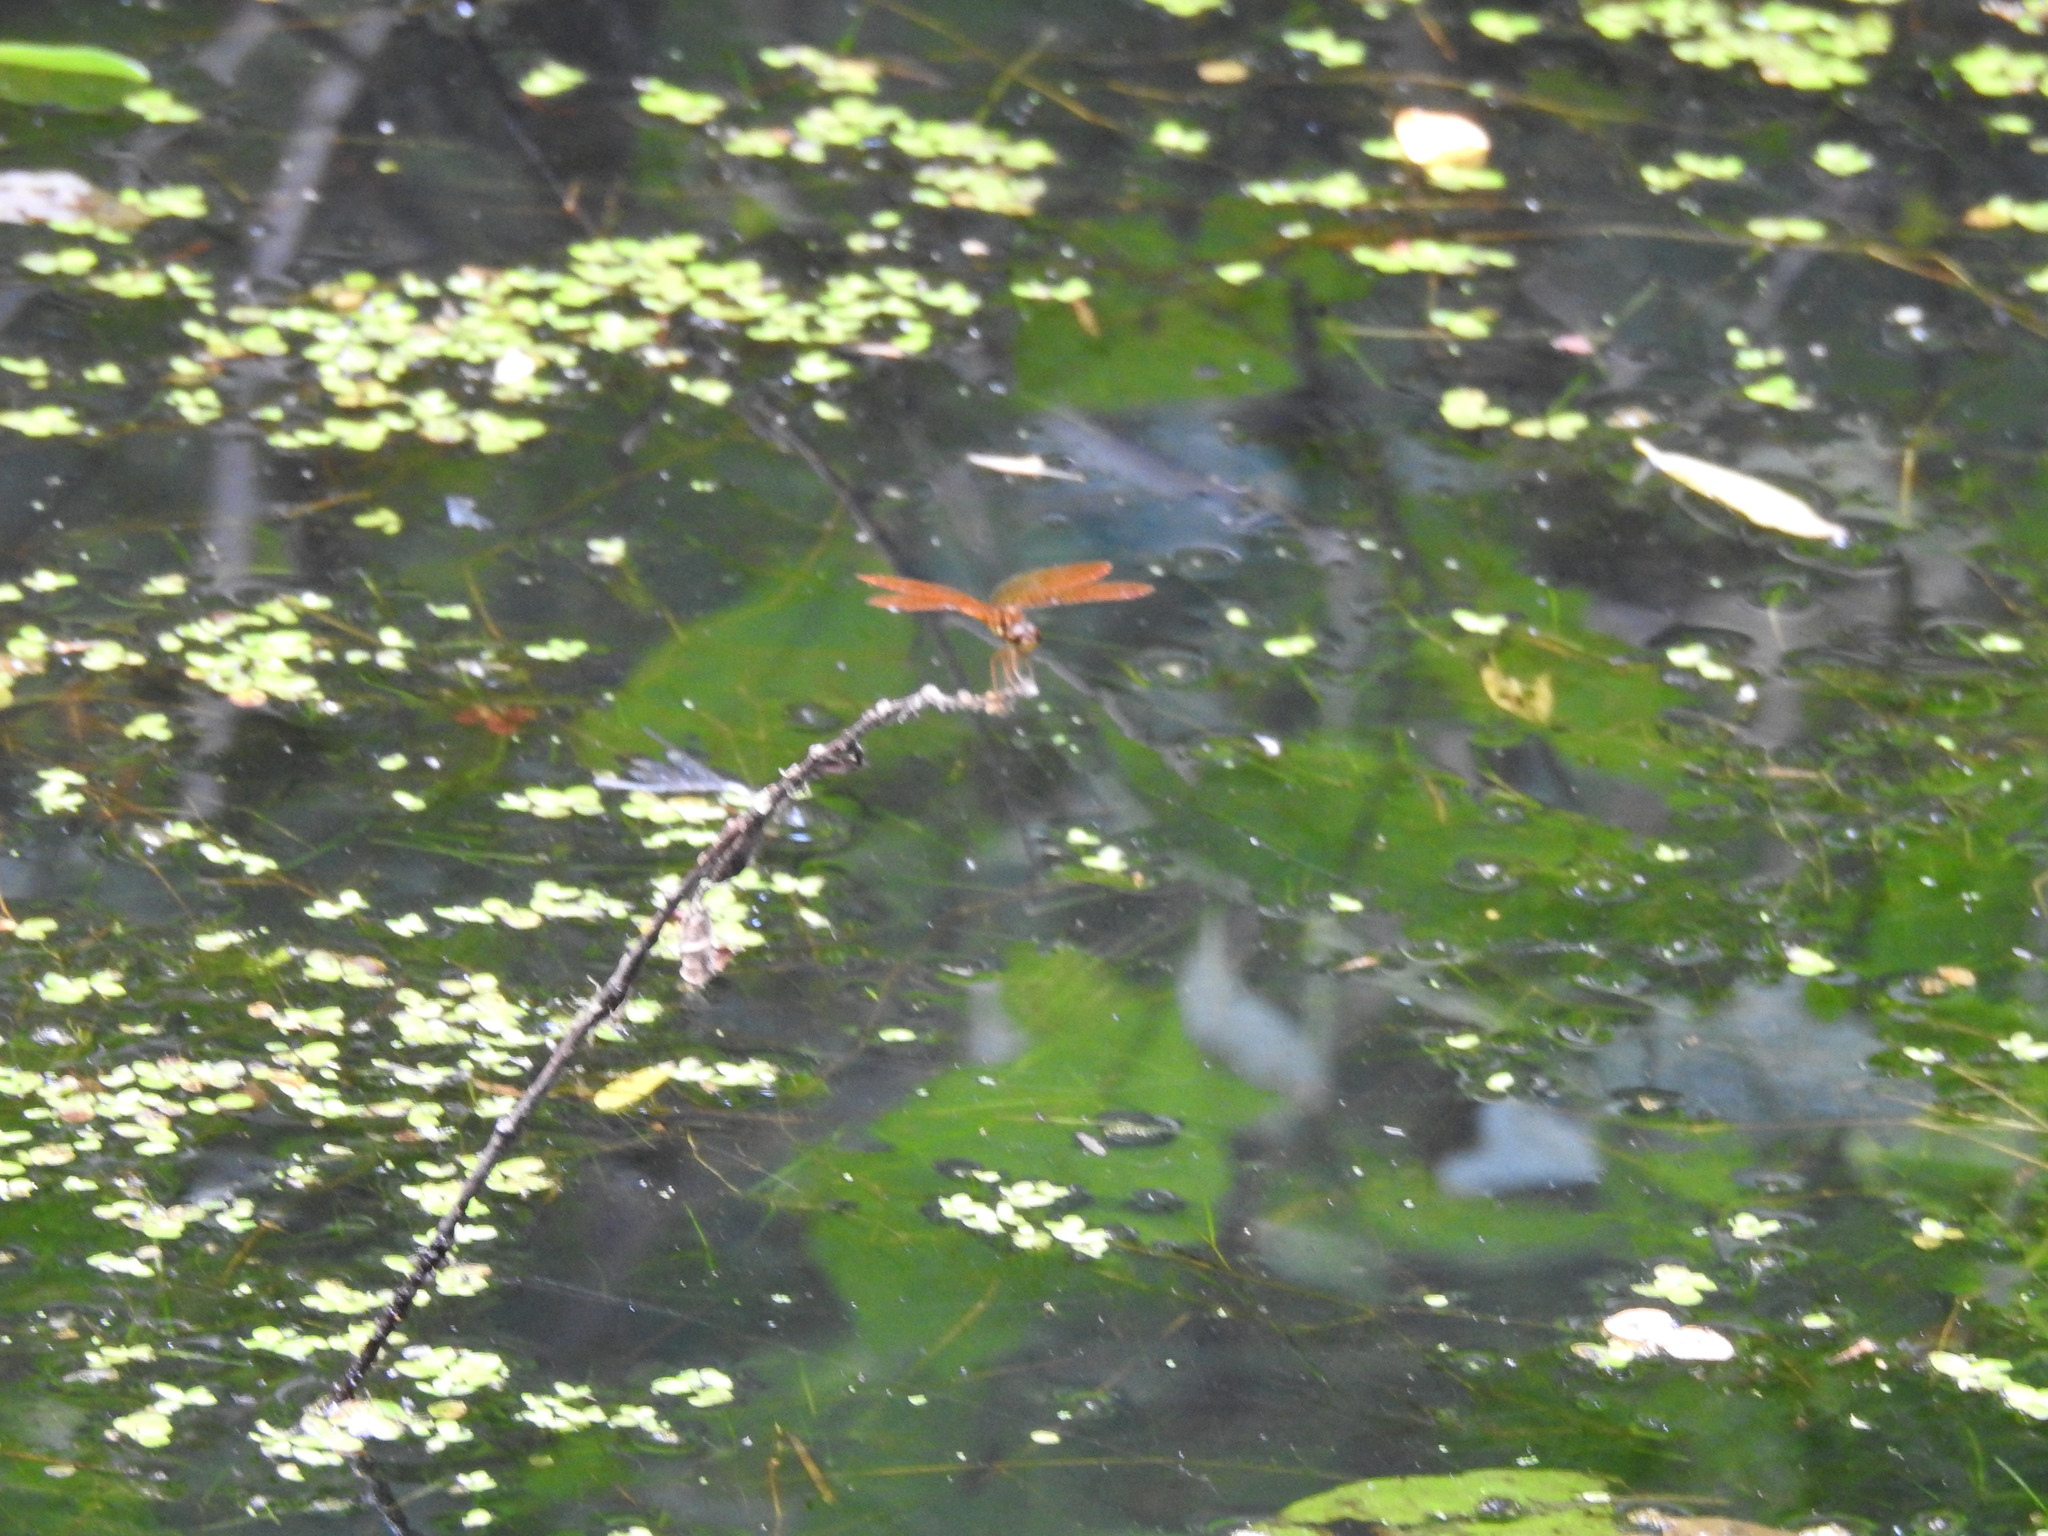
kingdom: Animalia
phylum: Arthropoda
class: Insecta
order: Odonata
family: Libellulidae
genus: Perithemis
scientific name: Perithemis tenera
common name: Eastern amberwing
